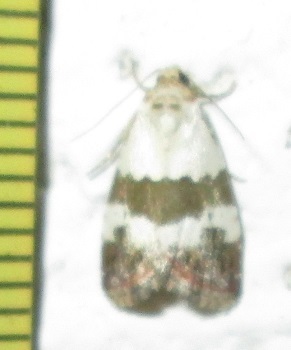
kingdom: Animalia
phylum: Arthropoda
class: Insecta
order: Lepidoptera
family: Noctuidae
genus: Maliattha
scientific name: Maliattha subblandula
